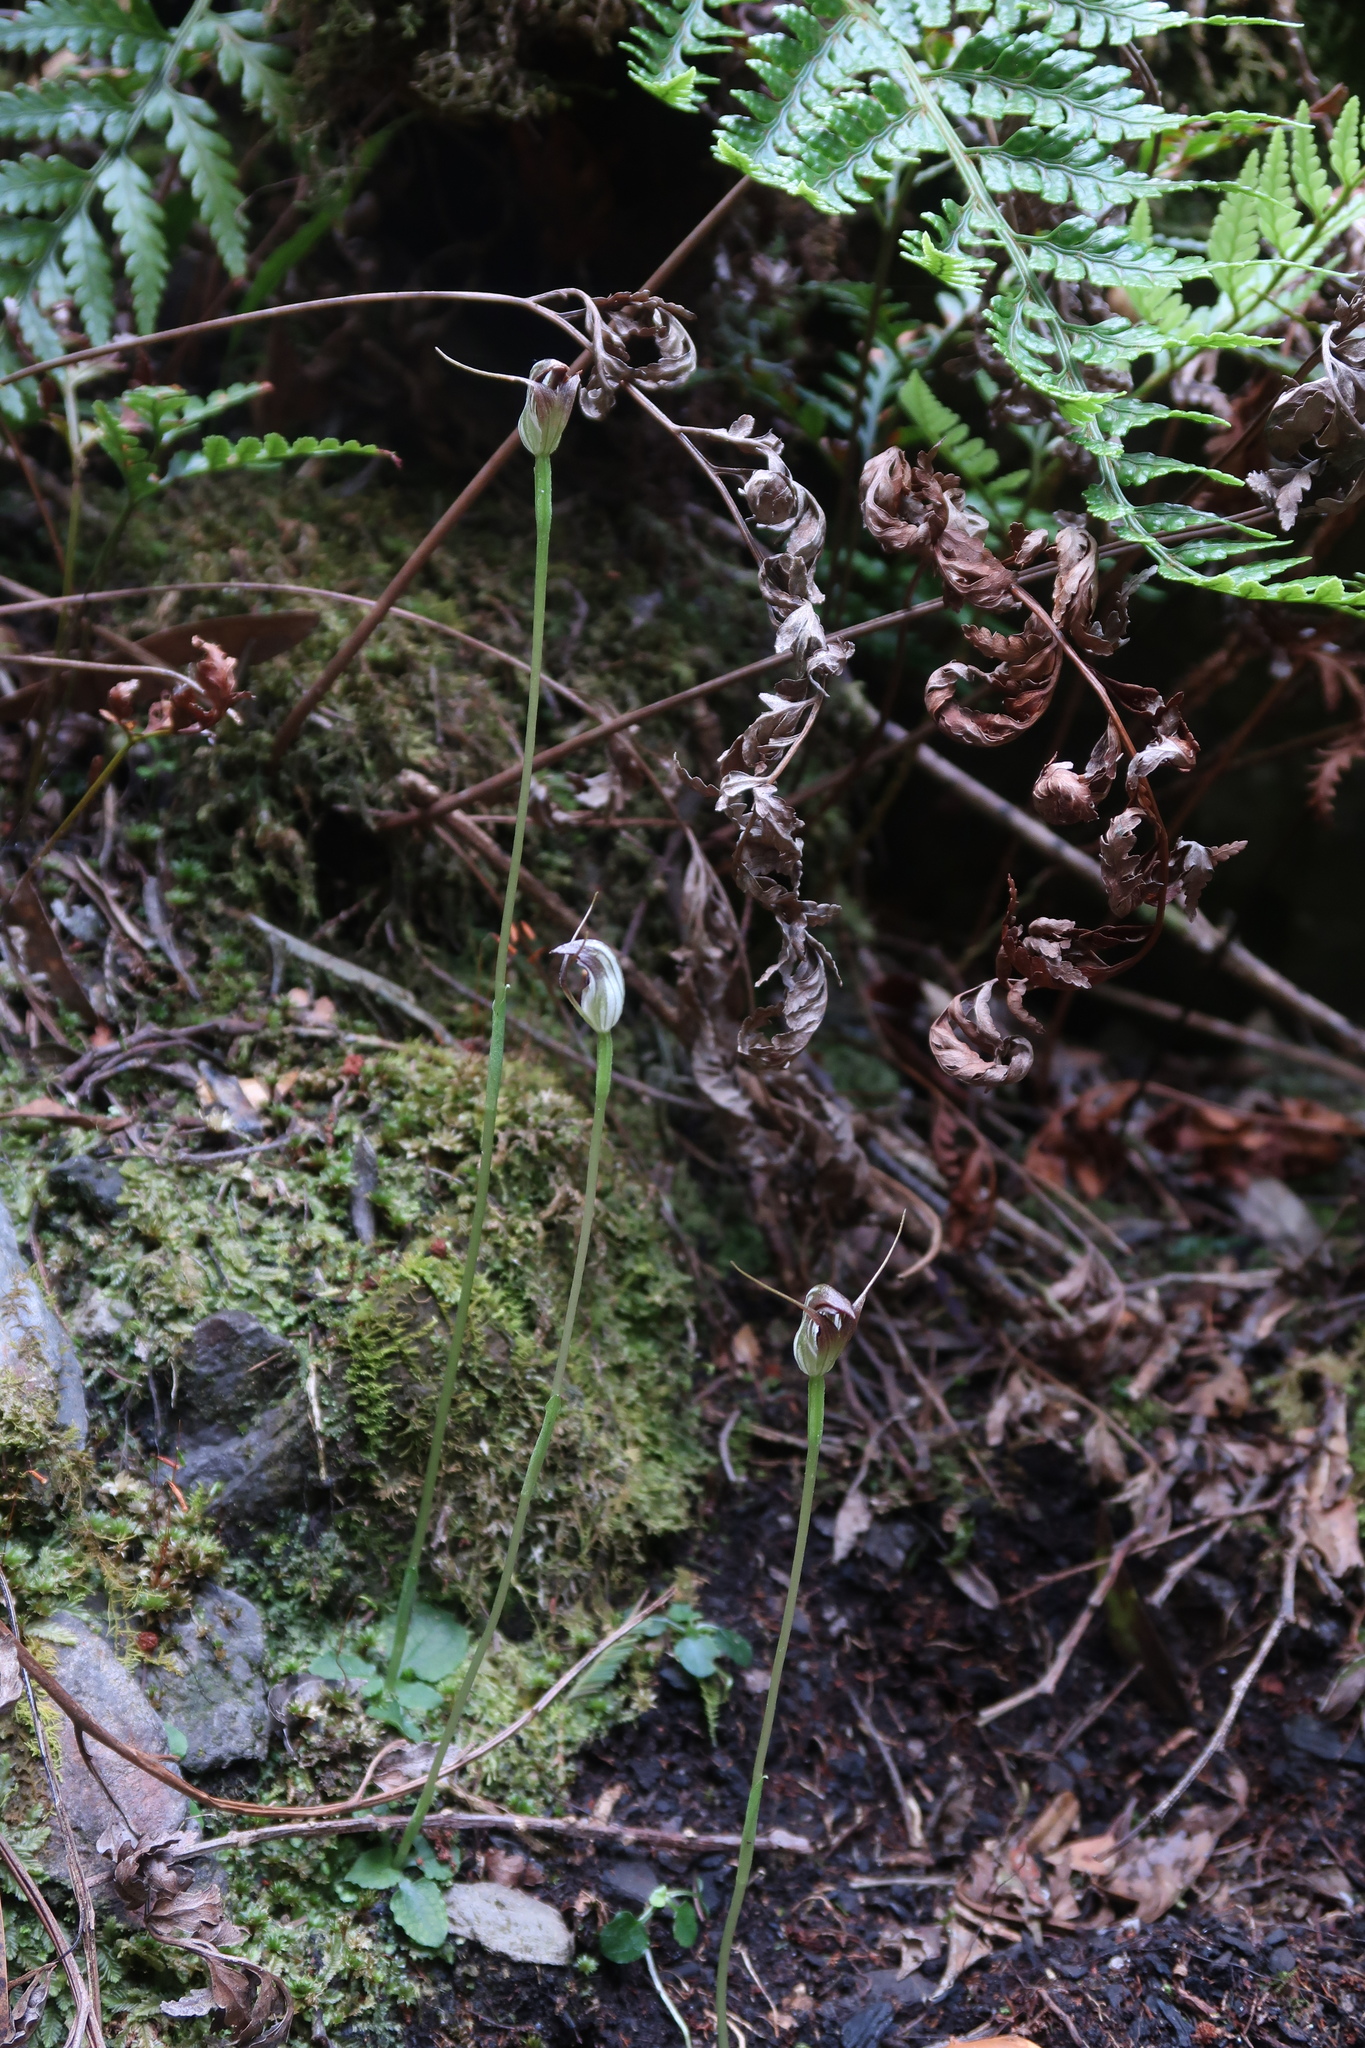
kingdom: Plantae
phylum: Tracheophyta
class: Liliopsida
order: Asparagales
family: Orchidaceae
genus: Pterostylis
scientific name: Pterostylis pedunculata
